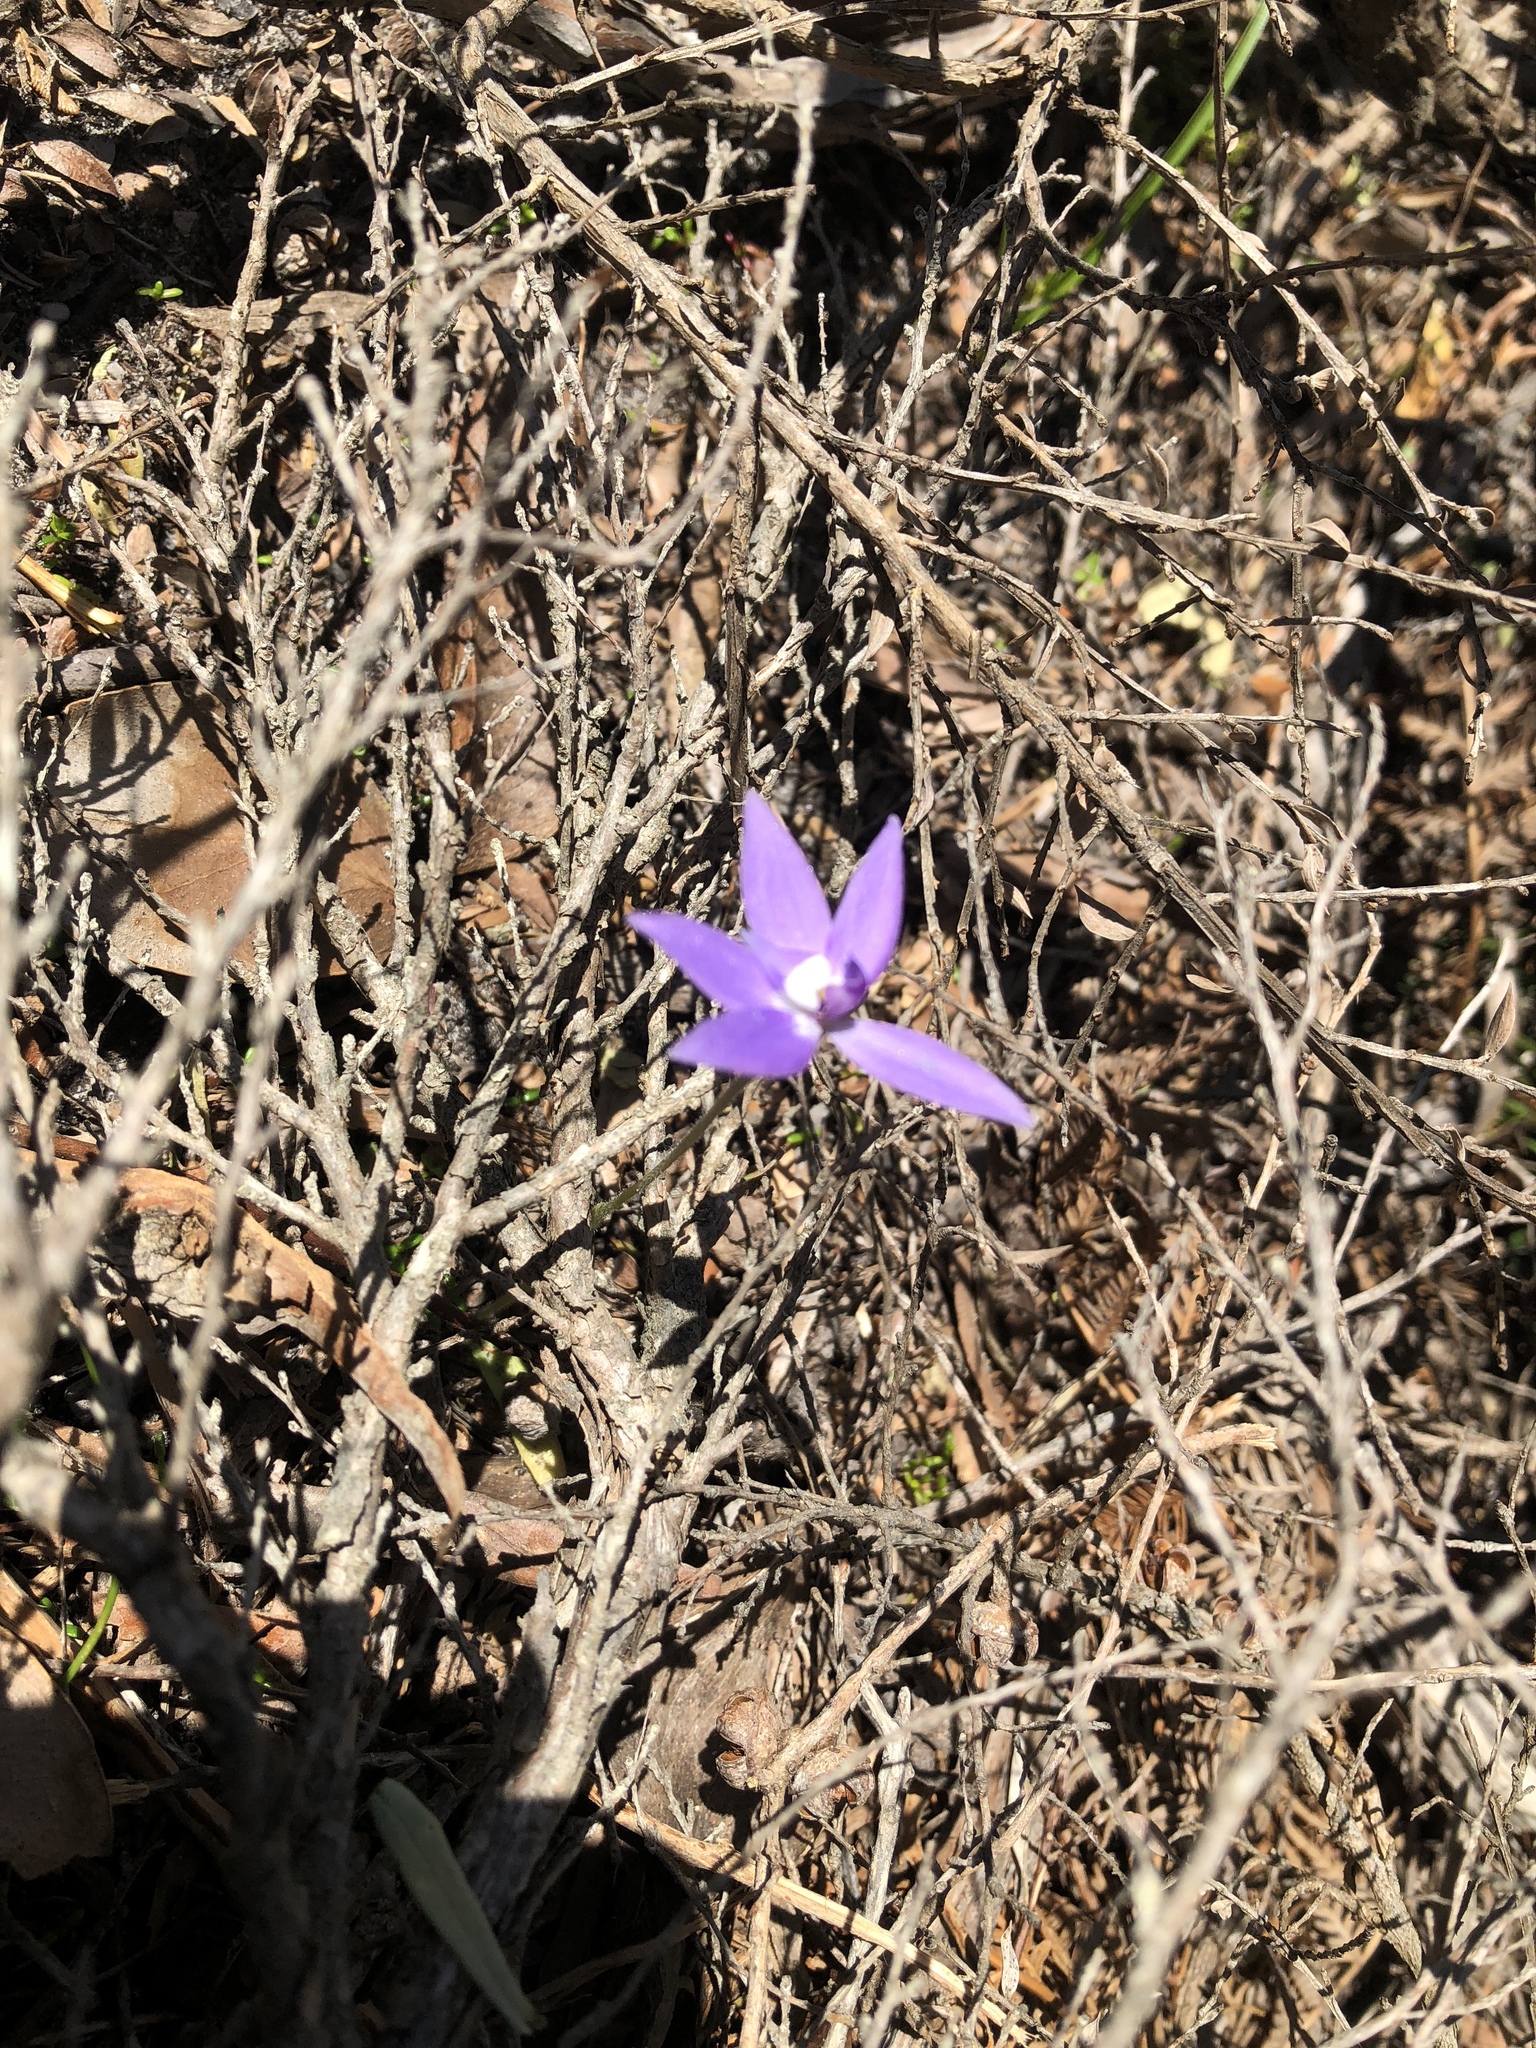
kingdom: Plantae
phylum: Tracheophyta
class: Liliopsida
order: Asparagales
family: Orchidaceae
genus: Caladenia
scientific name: Caladenia major
